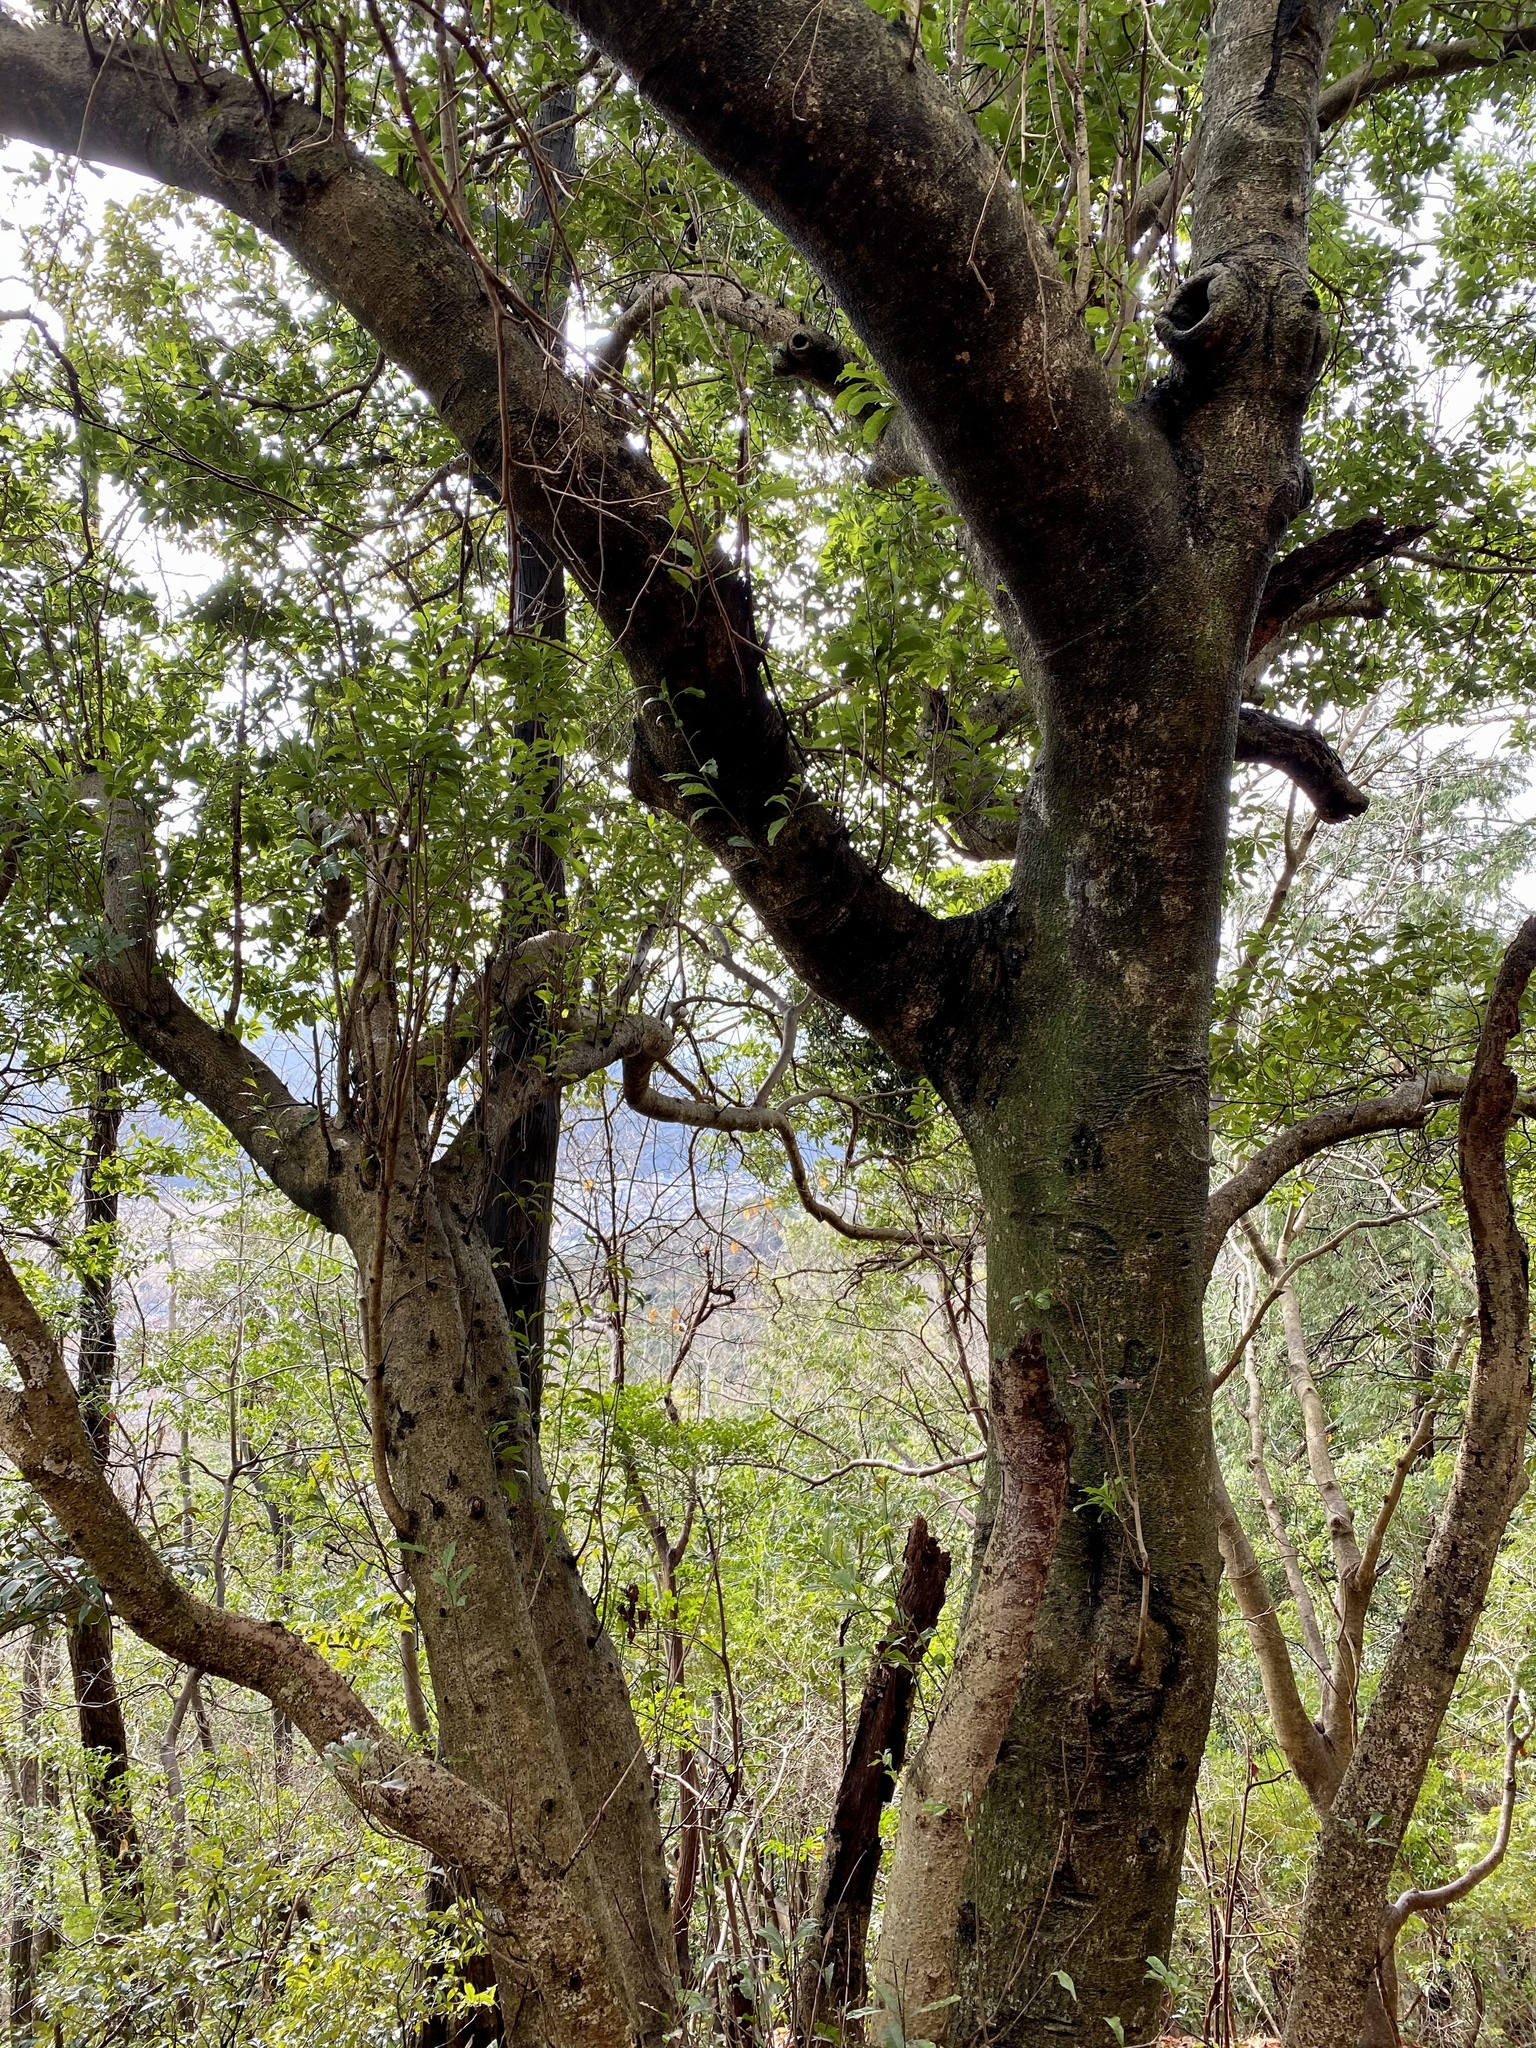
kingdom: Plantae
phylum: Tracheophyta
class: Magnoliopsida
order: Fagales
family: Myricaceae
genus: Morella
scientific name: Morella rubra
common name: Red bayberry
